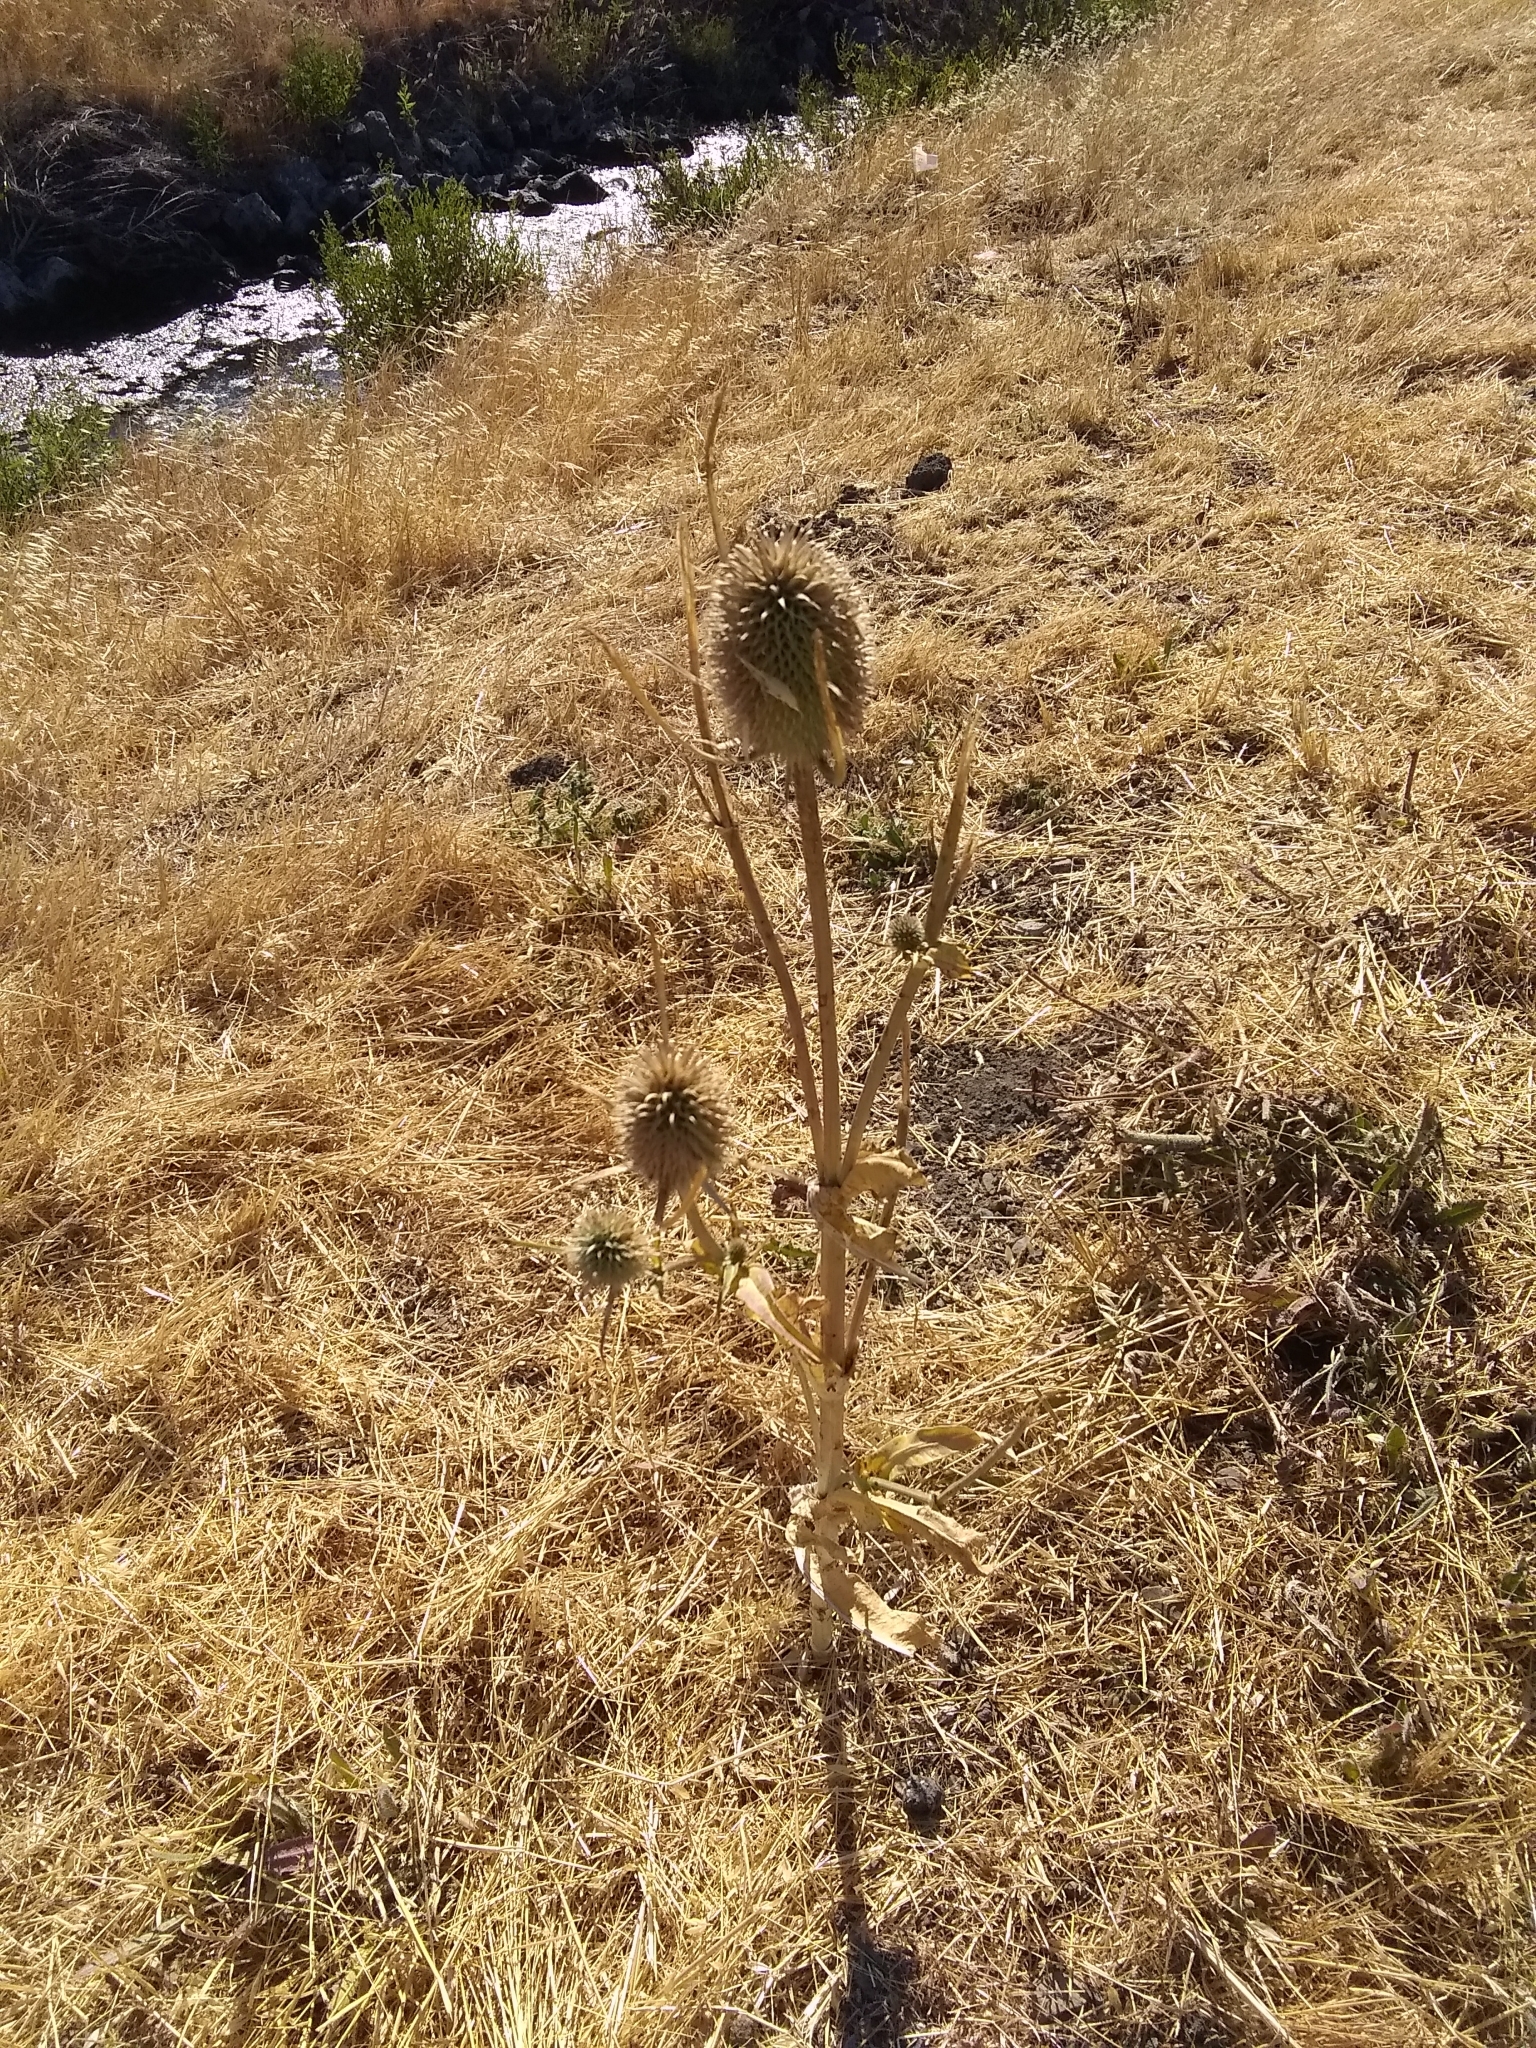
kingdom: Plantae
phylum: Tracheophyta
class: Magnoliopsida
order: Dipsacales
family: Caprifoliaceae
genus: Dipsacus
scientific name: Dipsacus sativus
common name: Fuller's teasel
